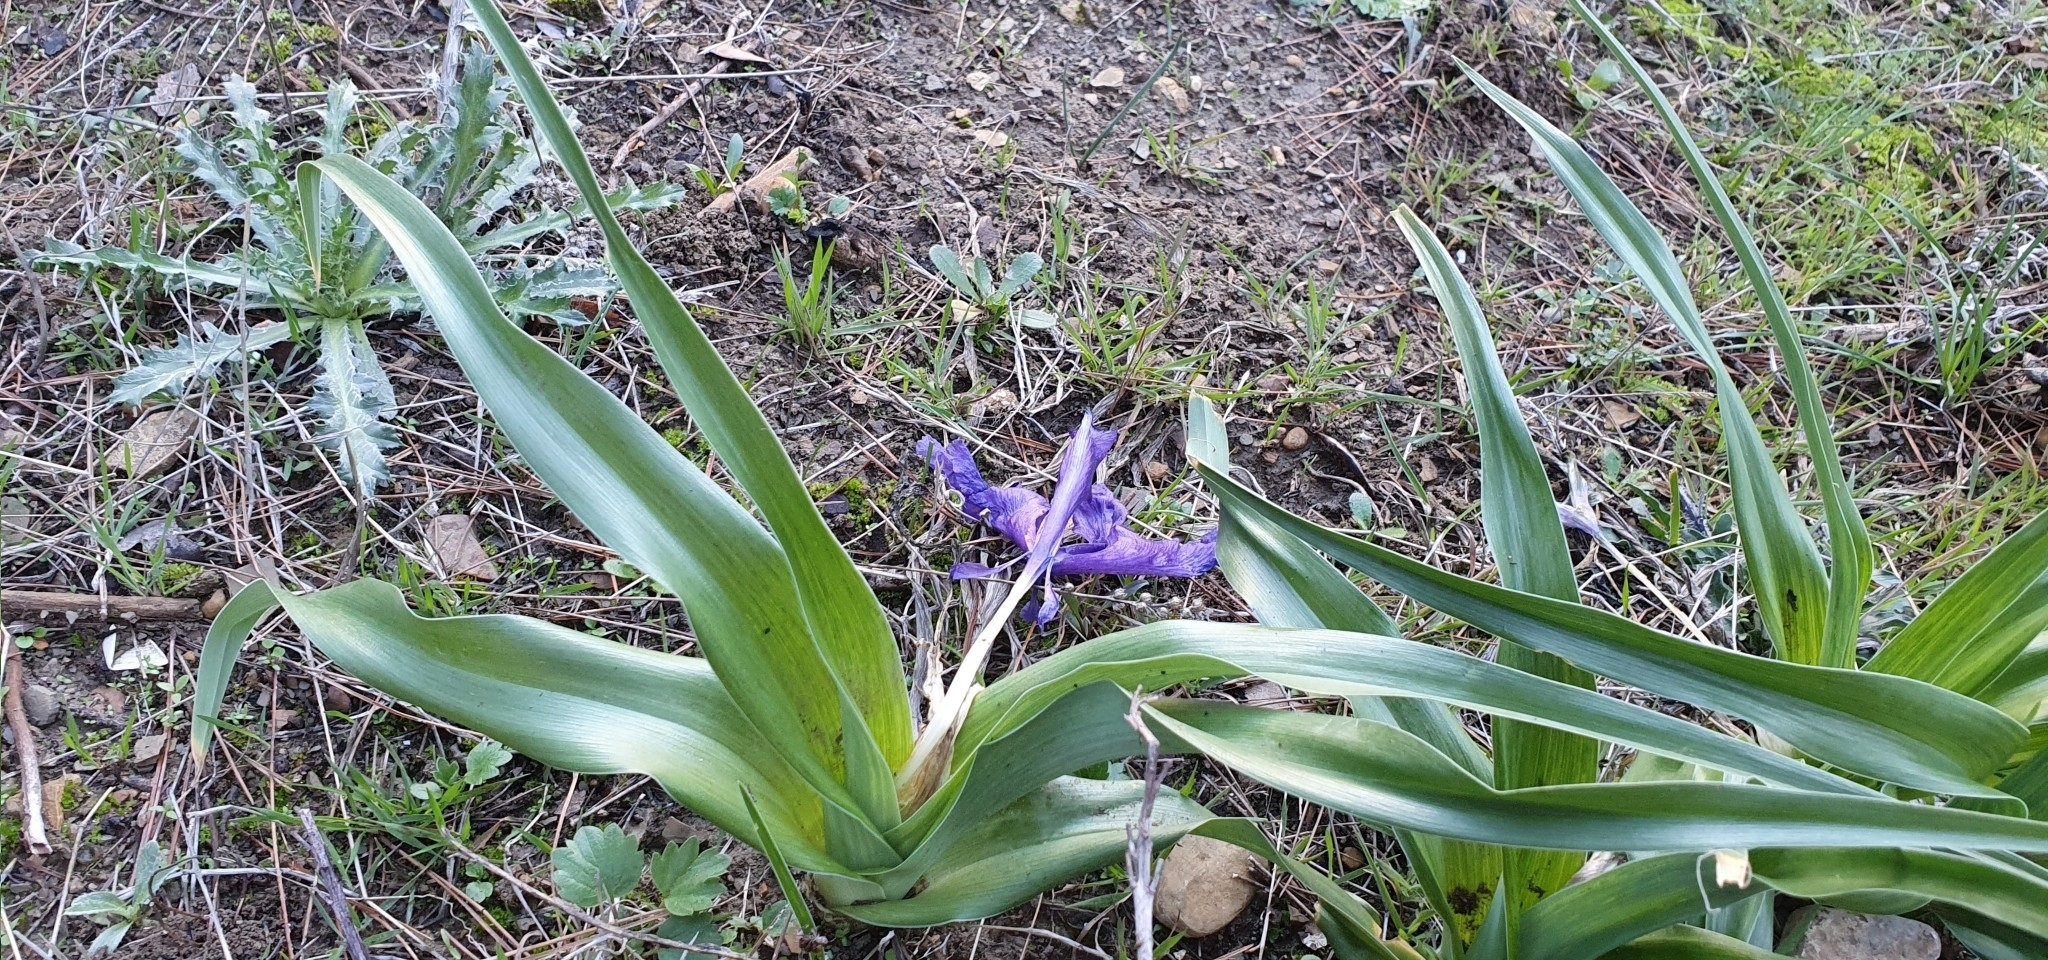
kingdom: Plantae
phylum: Tracheophyta
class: Liliopsida
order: Asparagales
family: Iridaceae
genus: Iris
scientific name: Iris planifolia
